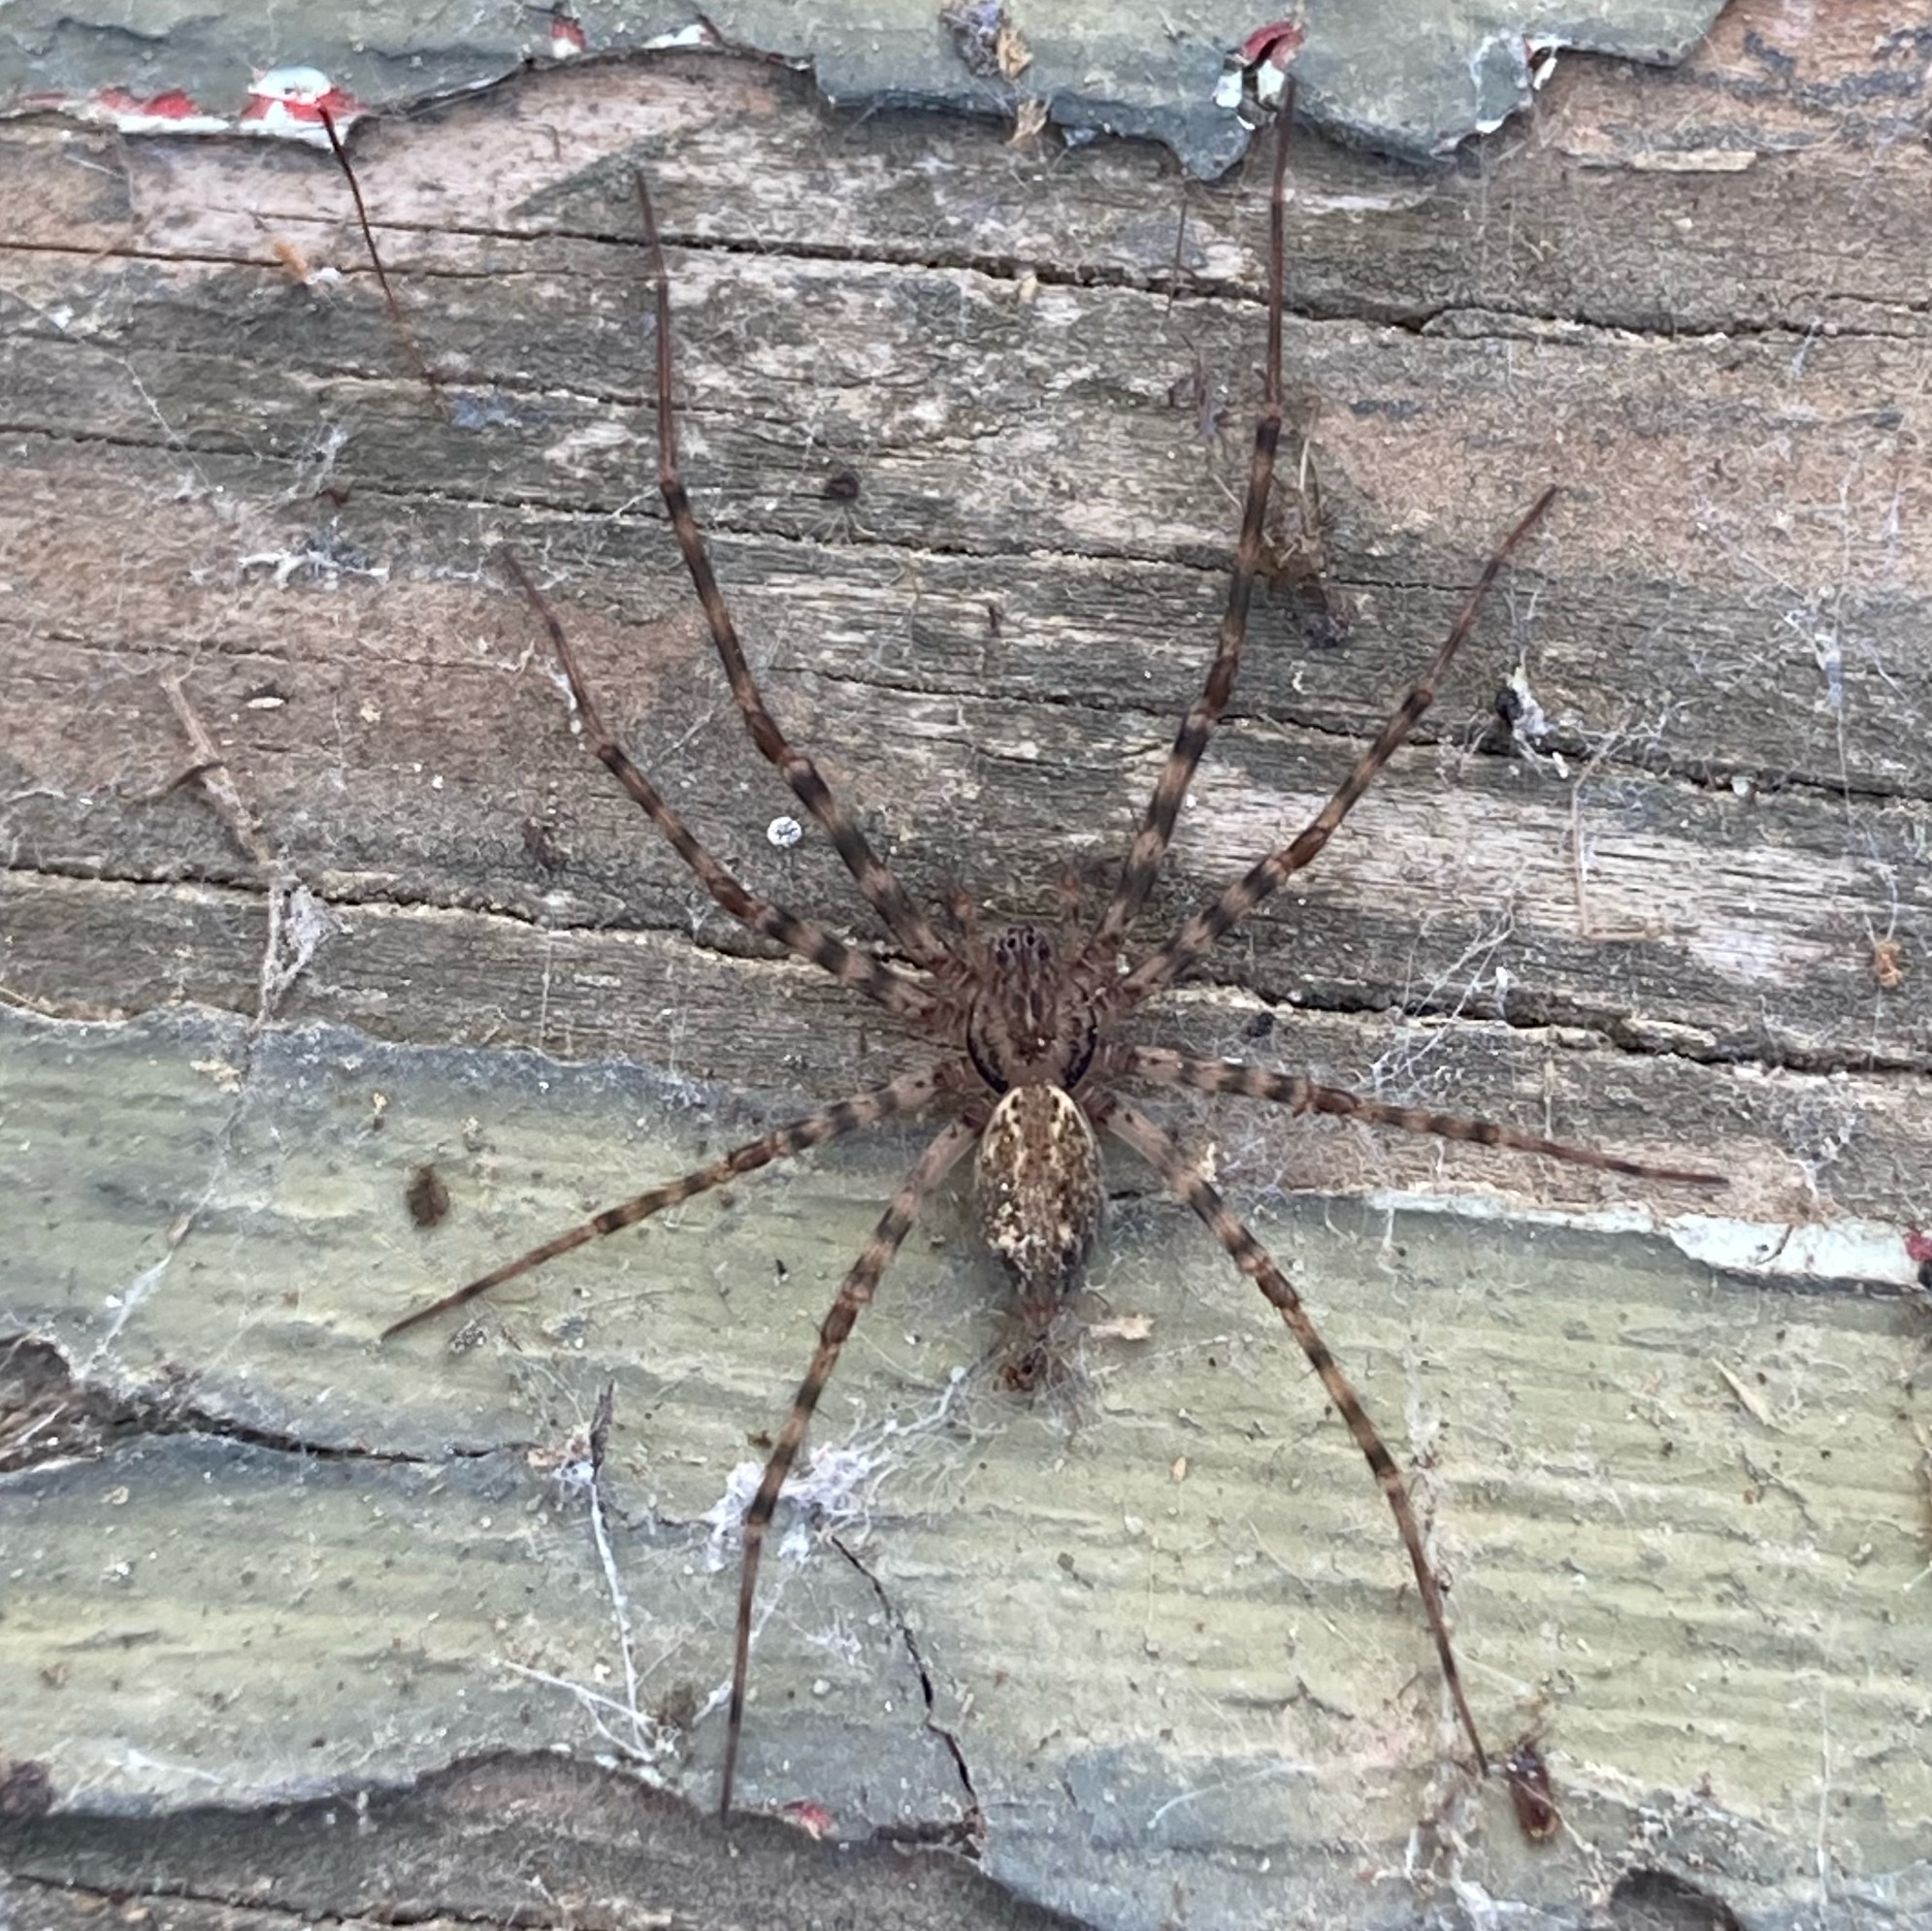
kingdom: Animalia
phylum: Arthropoda
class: Arachnida
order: Araneae
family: Stiphidiidae
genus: Stiphidion
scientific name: Stiphidion facetum
